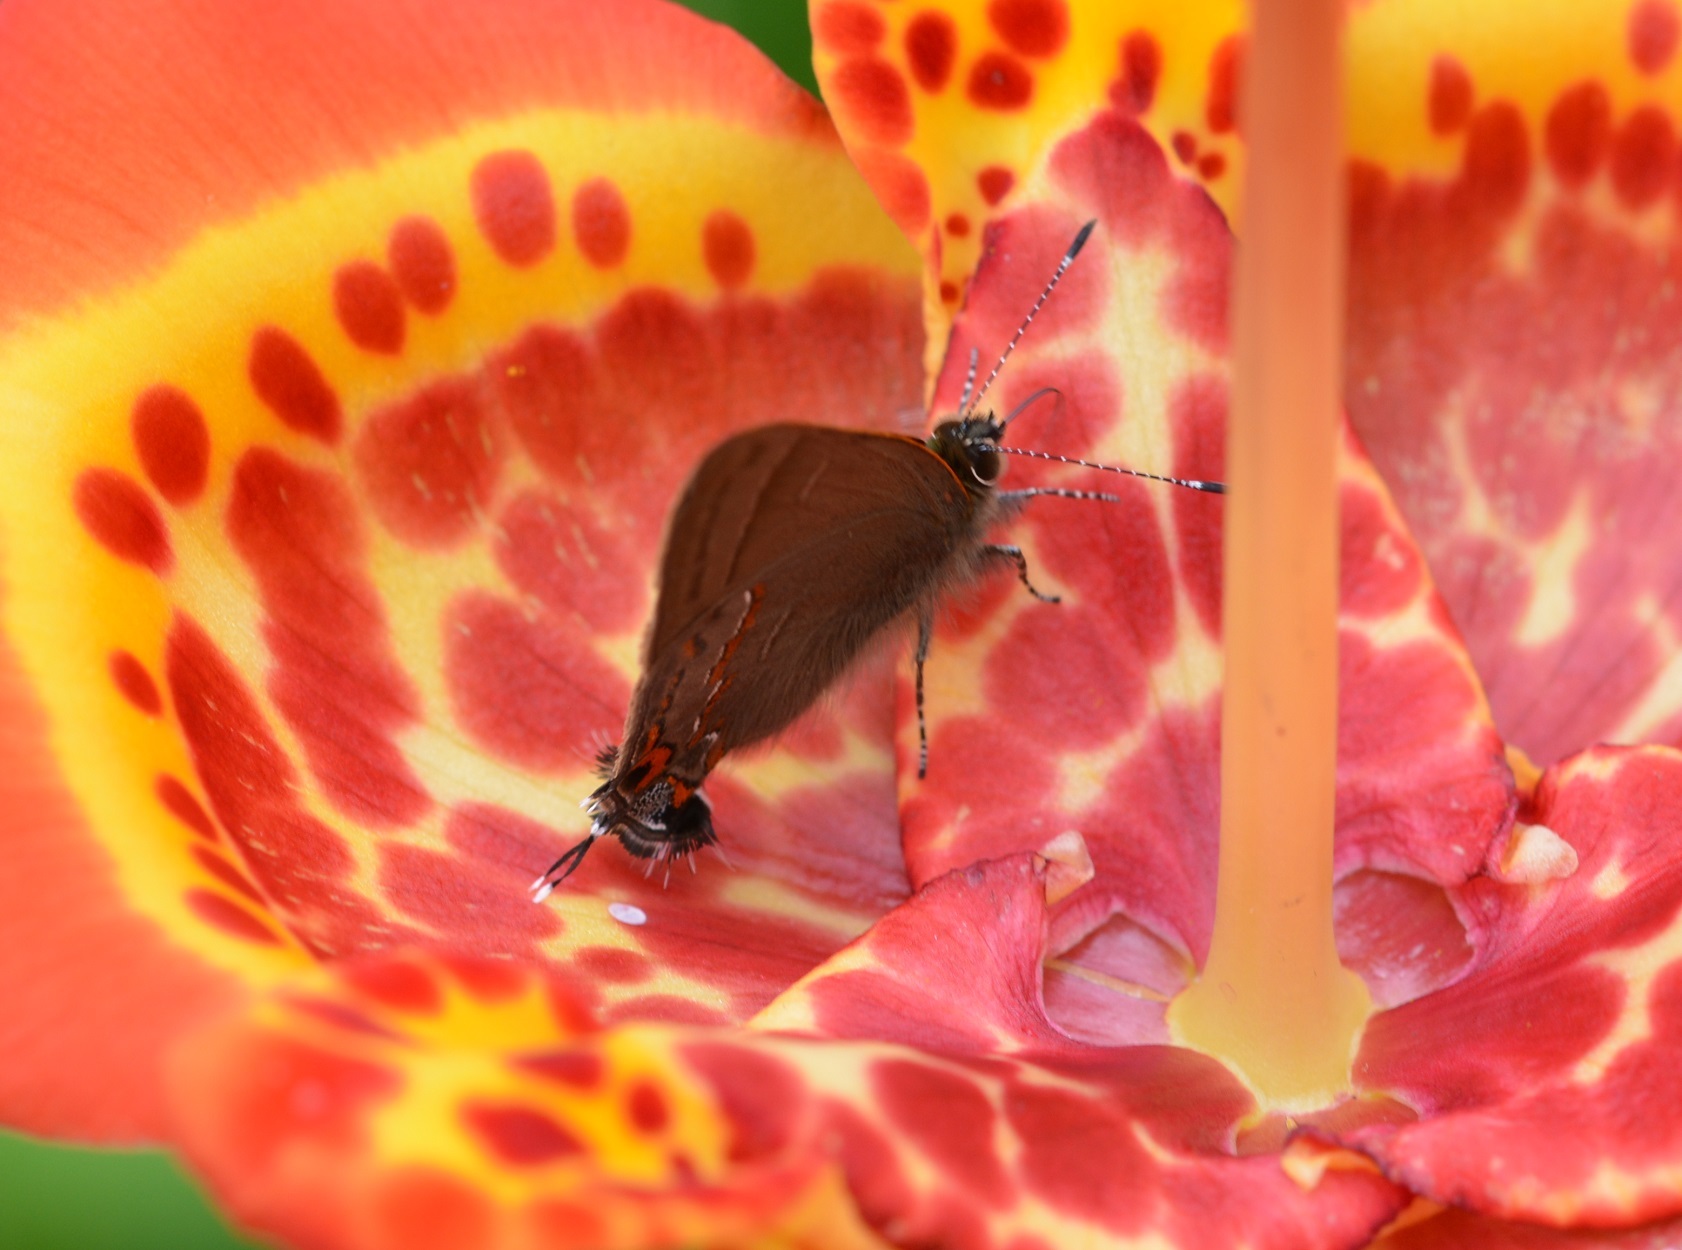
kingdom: Animalia
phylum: Arthropoda
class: Insecta
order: Lepidoptera
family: Lycaenidae
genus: Electrostrymon
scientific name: Electrostrymon
